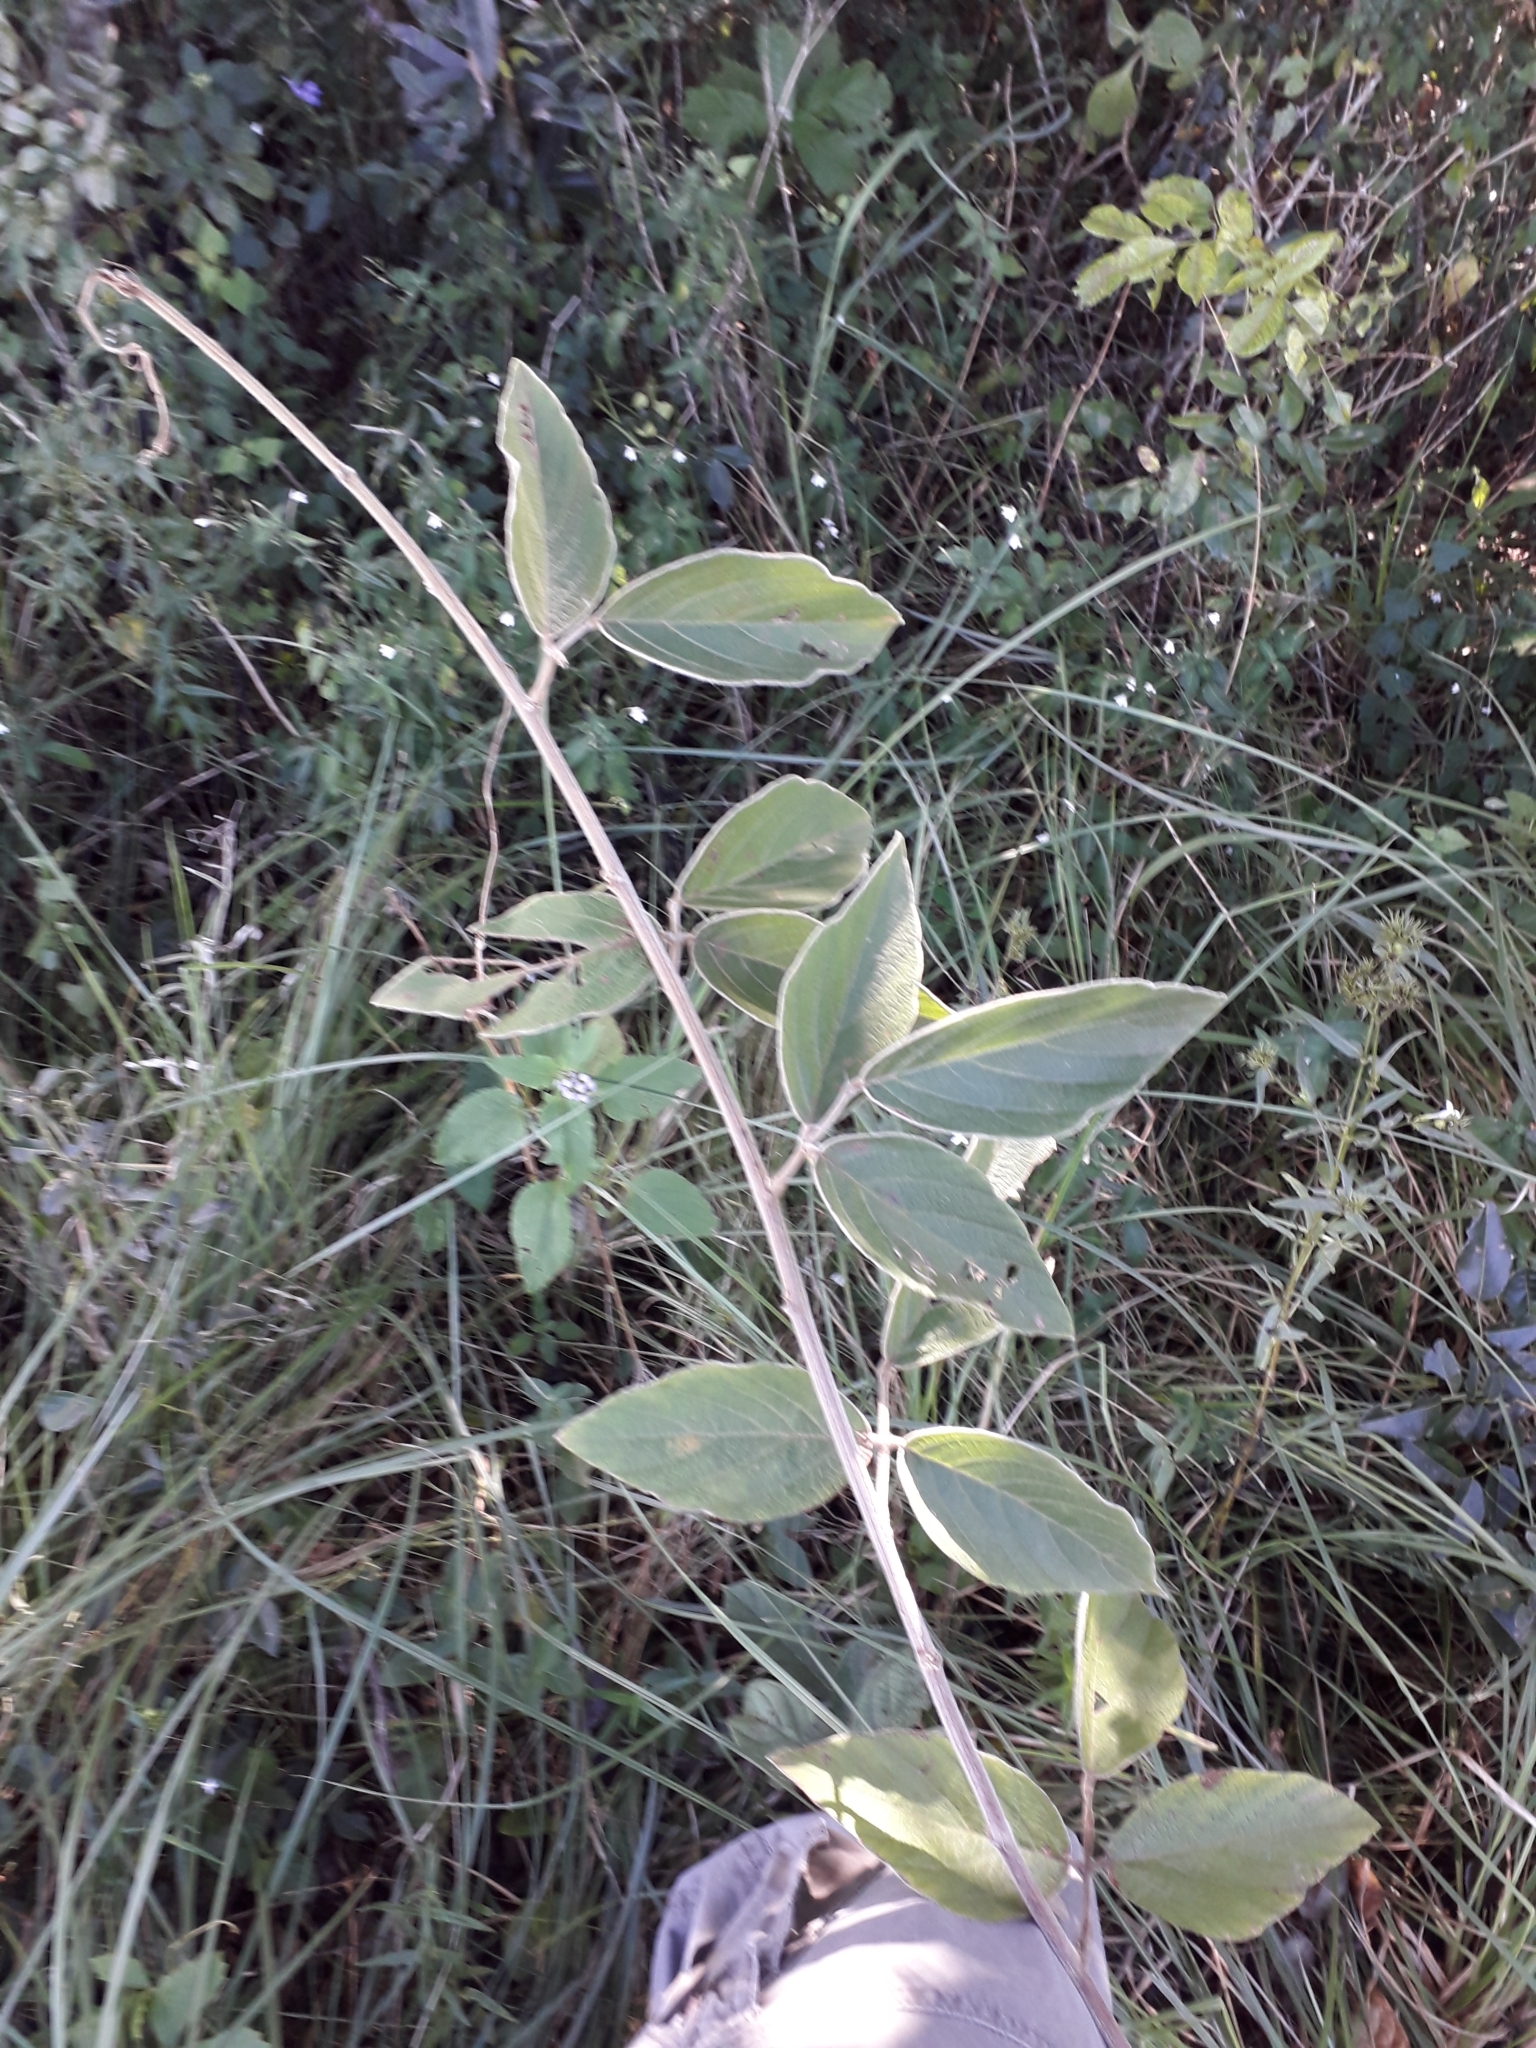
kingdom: Plantae
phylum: Tracheophyta
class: Magnoliopsida
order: Fabales
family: Fabaceae
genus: Pseudarthria
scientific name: Pseudarthria hookeri
